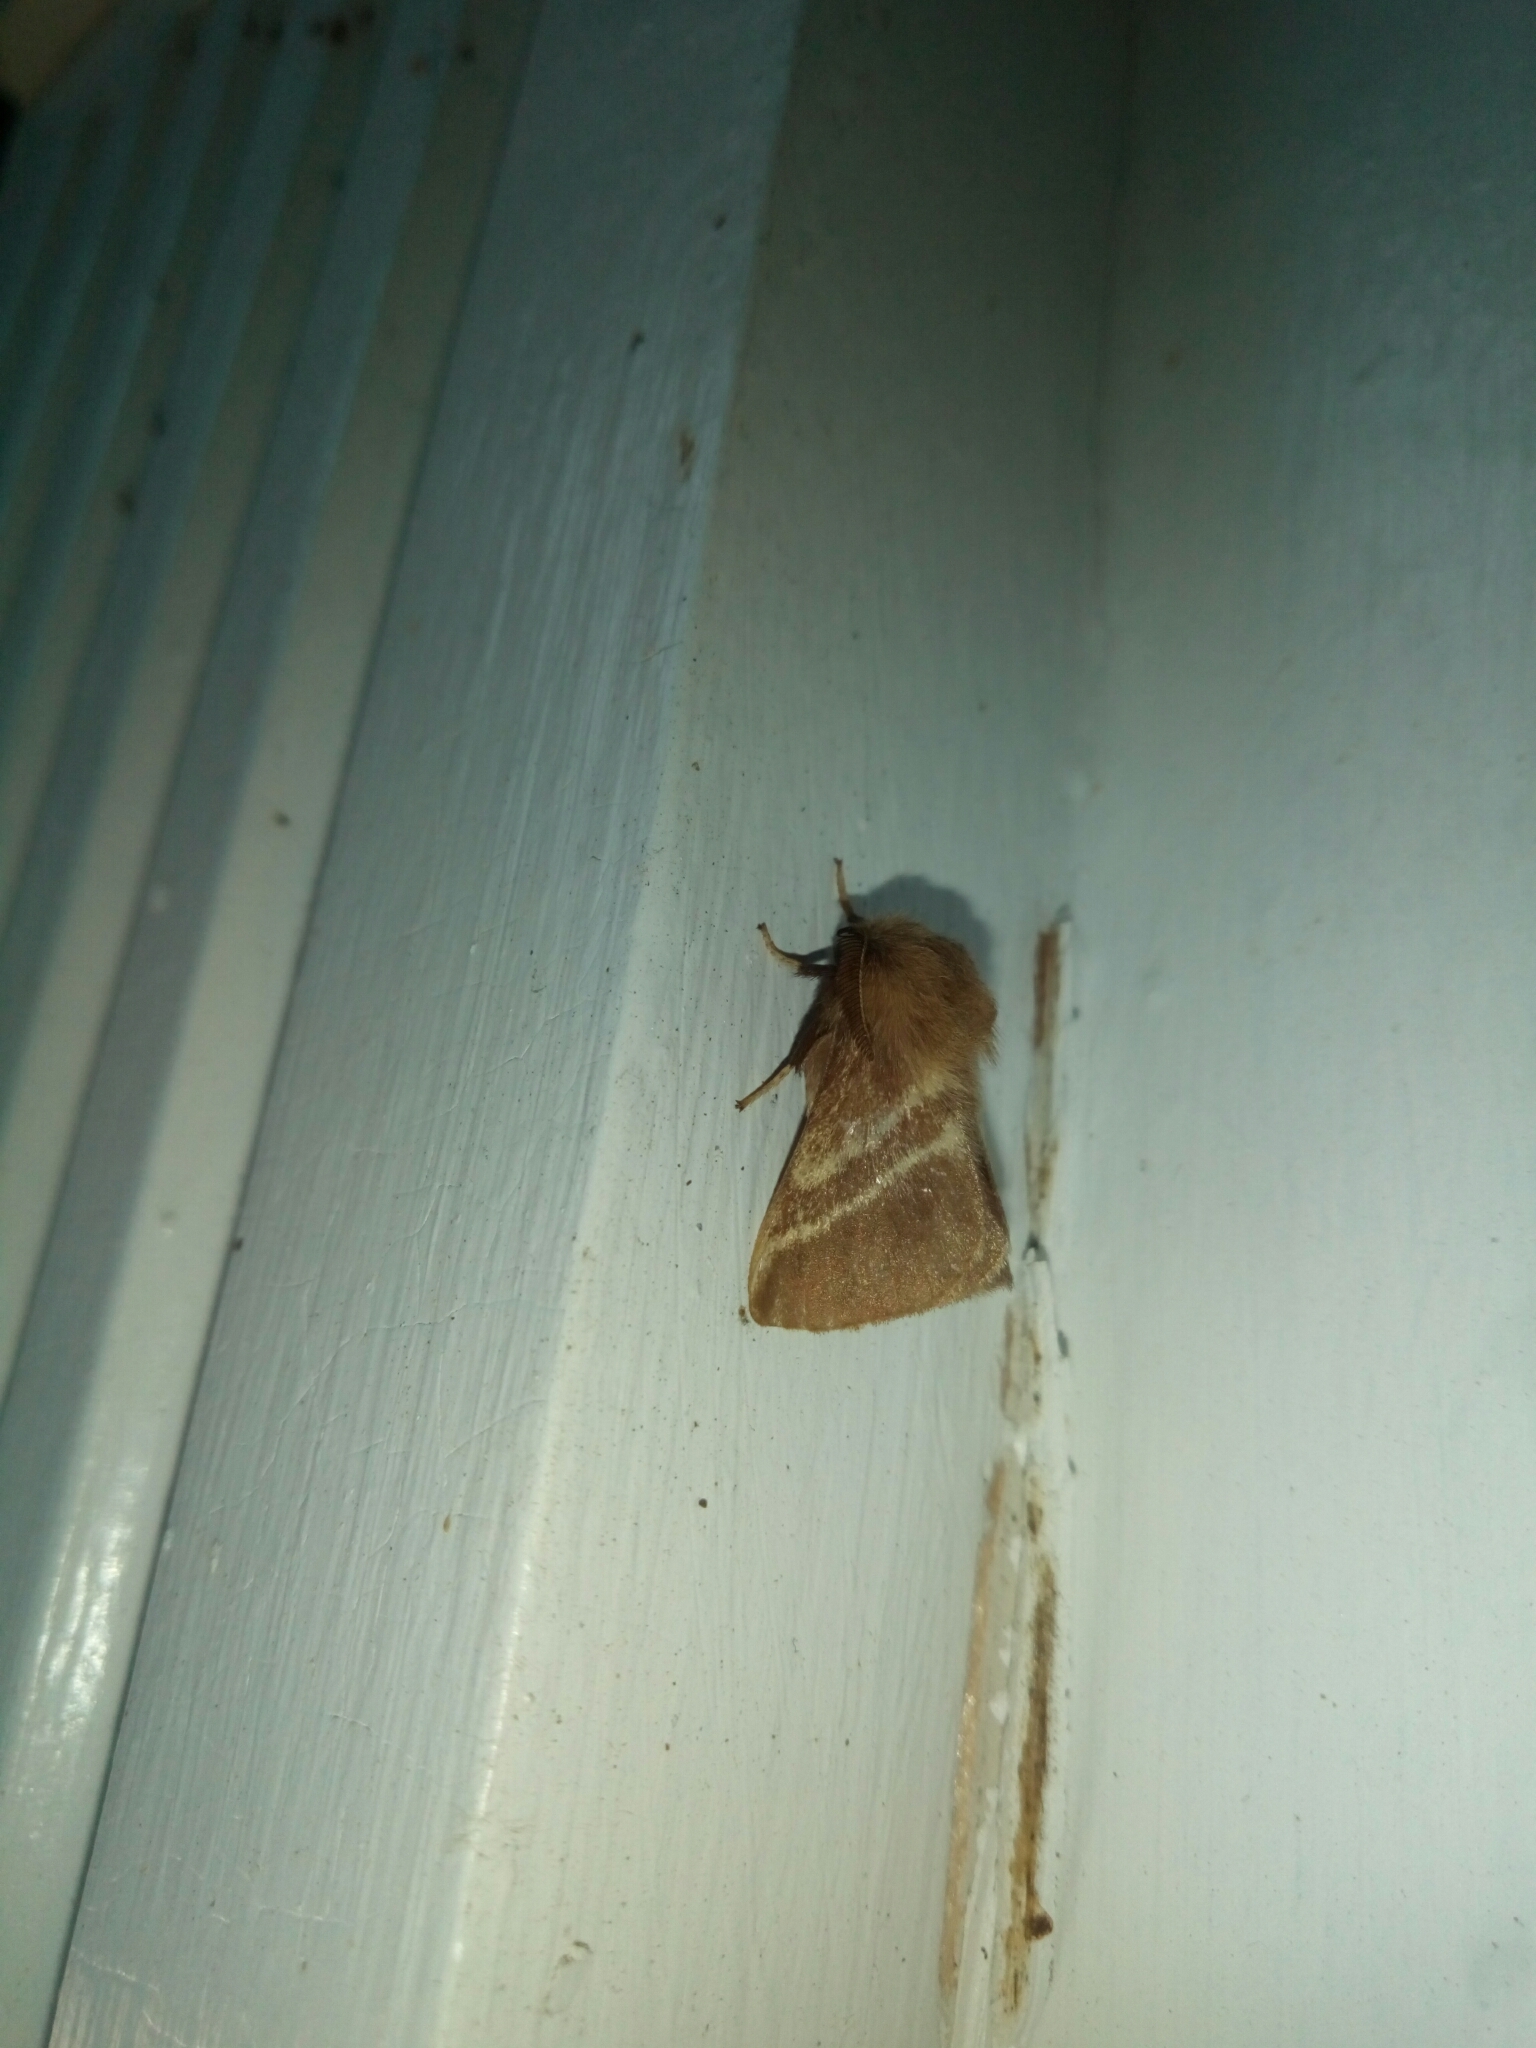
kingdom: Animalia
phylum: Arthropoda
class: Insecta
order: Lepidoptera
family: Lasiocampidae
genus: Malacosoma
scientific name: Malacosoma americana
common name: Eastern tent caterpillar moth
